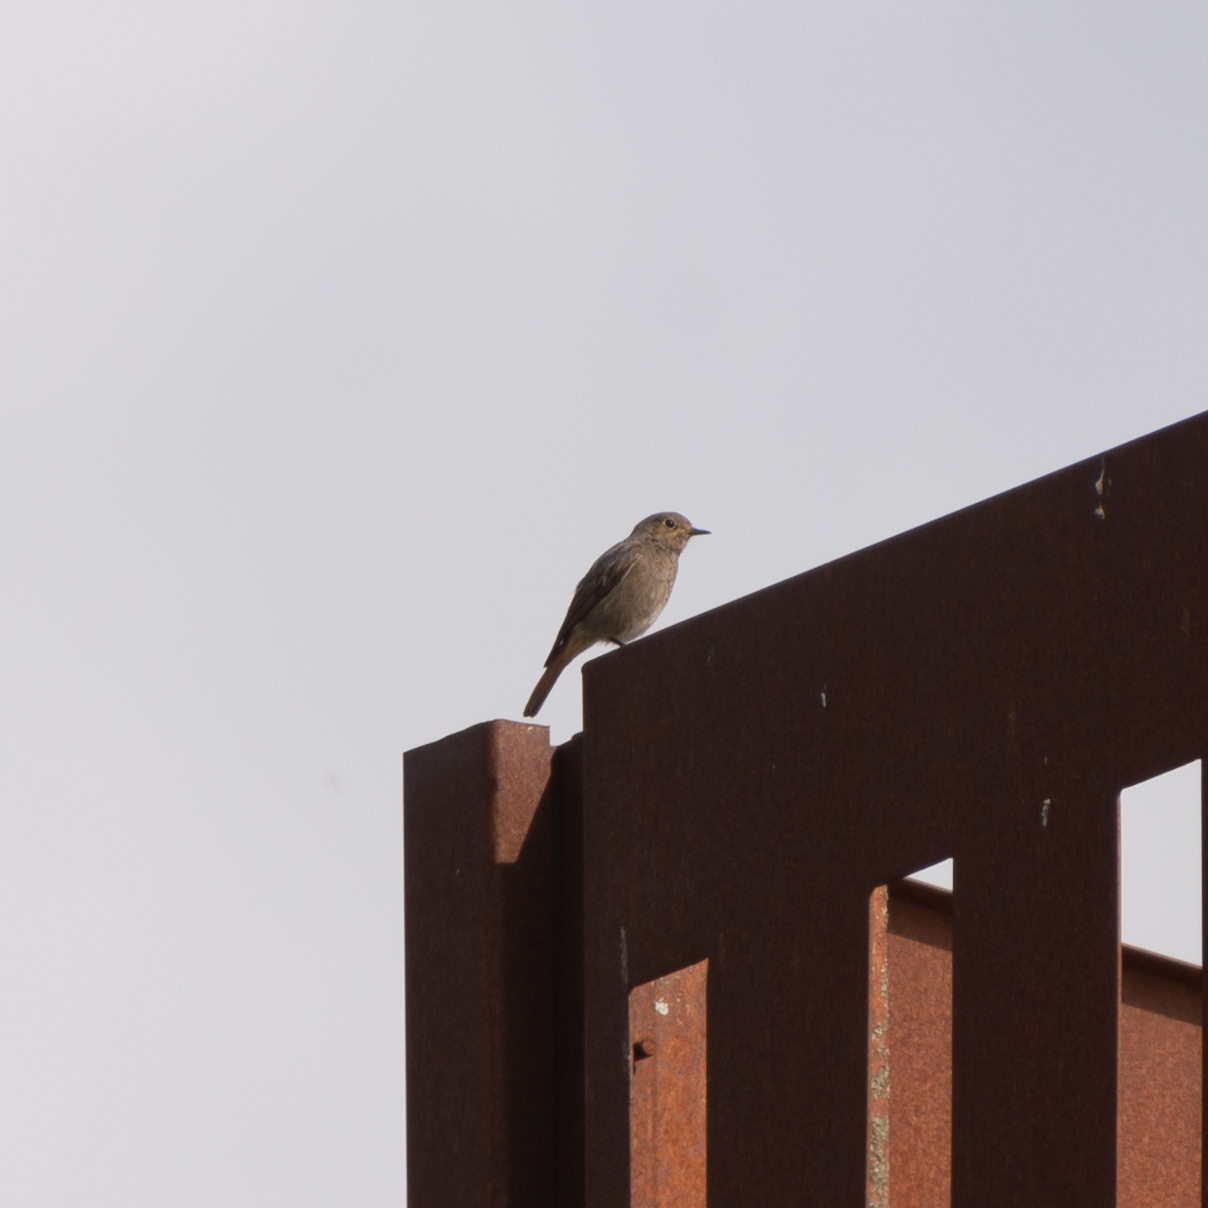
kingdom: Animalia
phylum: Chordata
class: Aves
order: Passeriformes
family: Muscicapidae
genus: Phoenicurus
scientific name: Phoenicurus ochruros
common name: Black redstart
